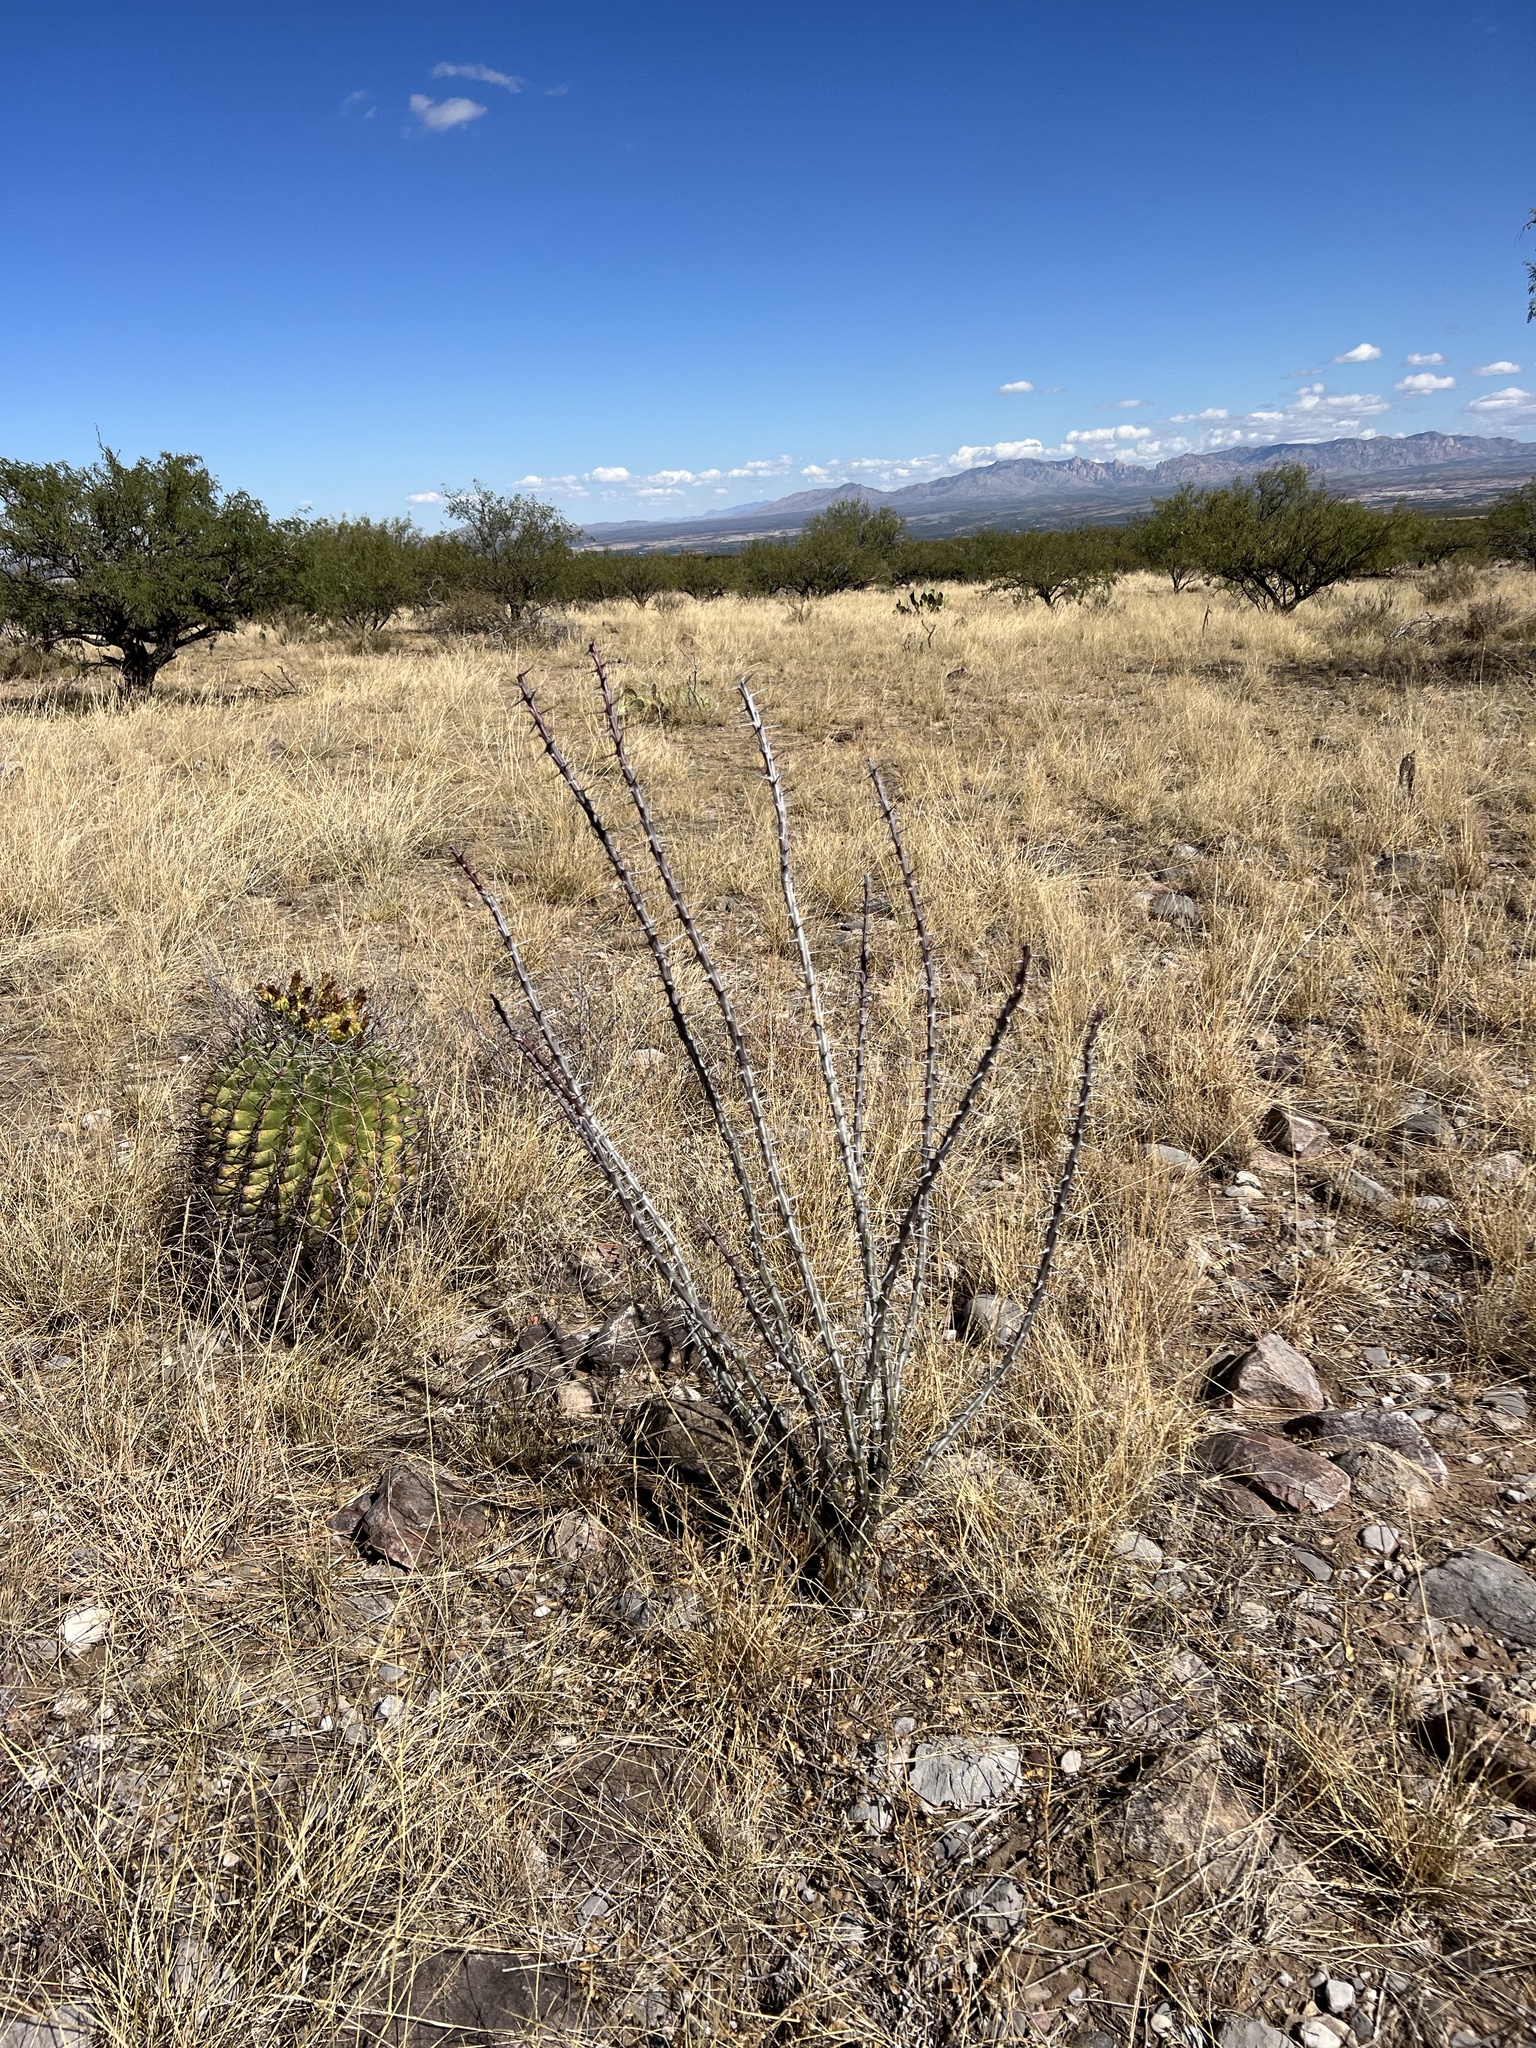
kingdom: Plantae
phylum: Tracheophyta
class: Magnoliopsida
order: Ericales
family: Fouquieriaceae
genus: Fouquieria
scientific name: Fouquieria splendens
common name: Vine-cactus
